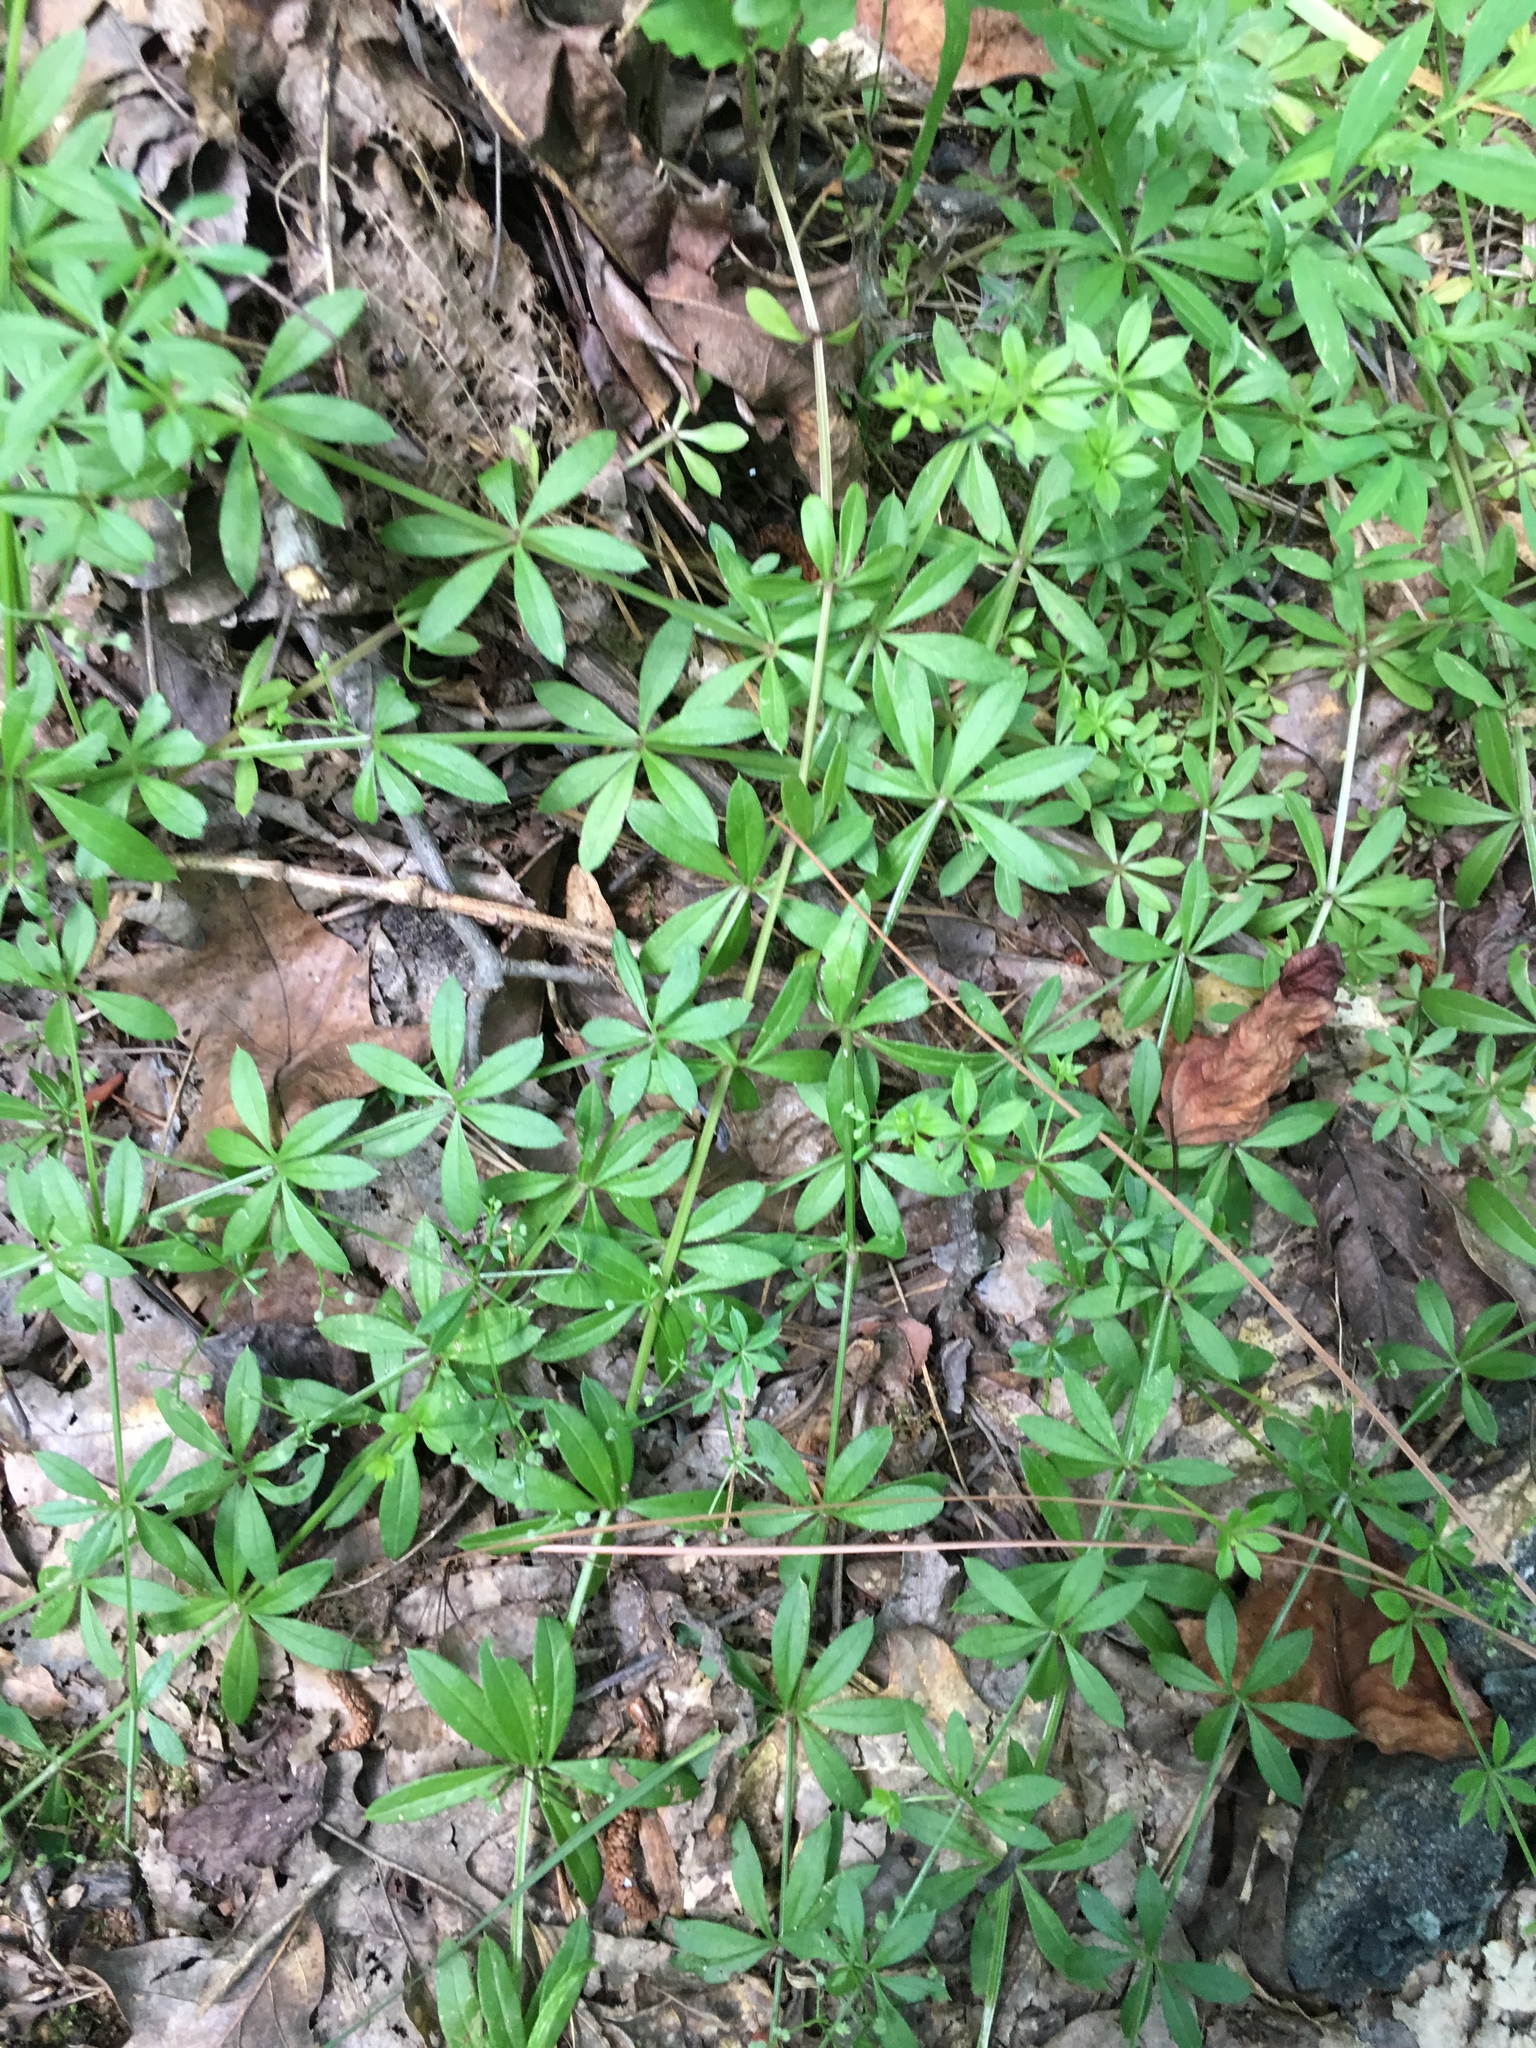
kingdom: Plantae
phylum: Tracheophyta
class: Magnoliopsida
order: Gentianales
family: Rubiaceae
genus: Galium
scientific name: Galium triflorum
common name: Fragrant bedstraw
